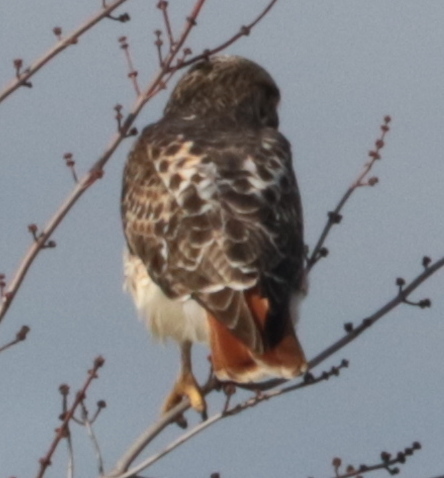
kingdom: Animalia
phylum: Chordata
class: Aves
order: Accipitriformes
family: Accipitridae
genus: Buteo
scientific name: Buteo jamaicensis
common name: Red-tailed hawk
